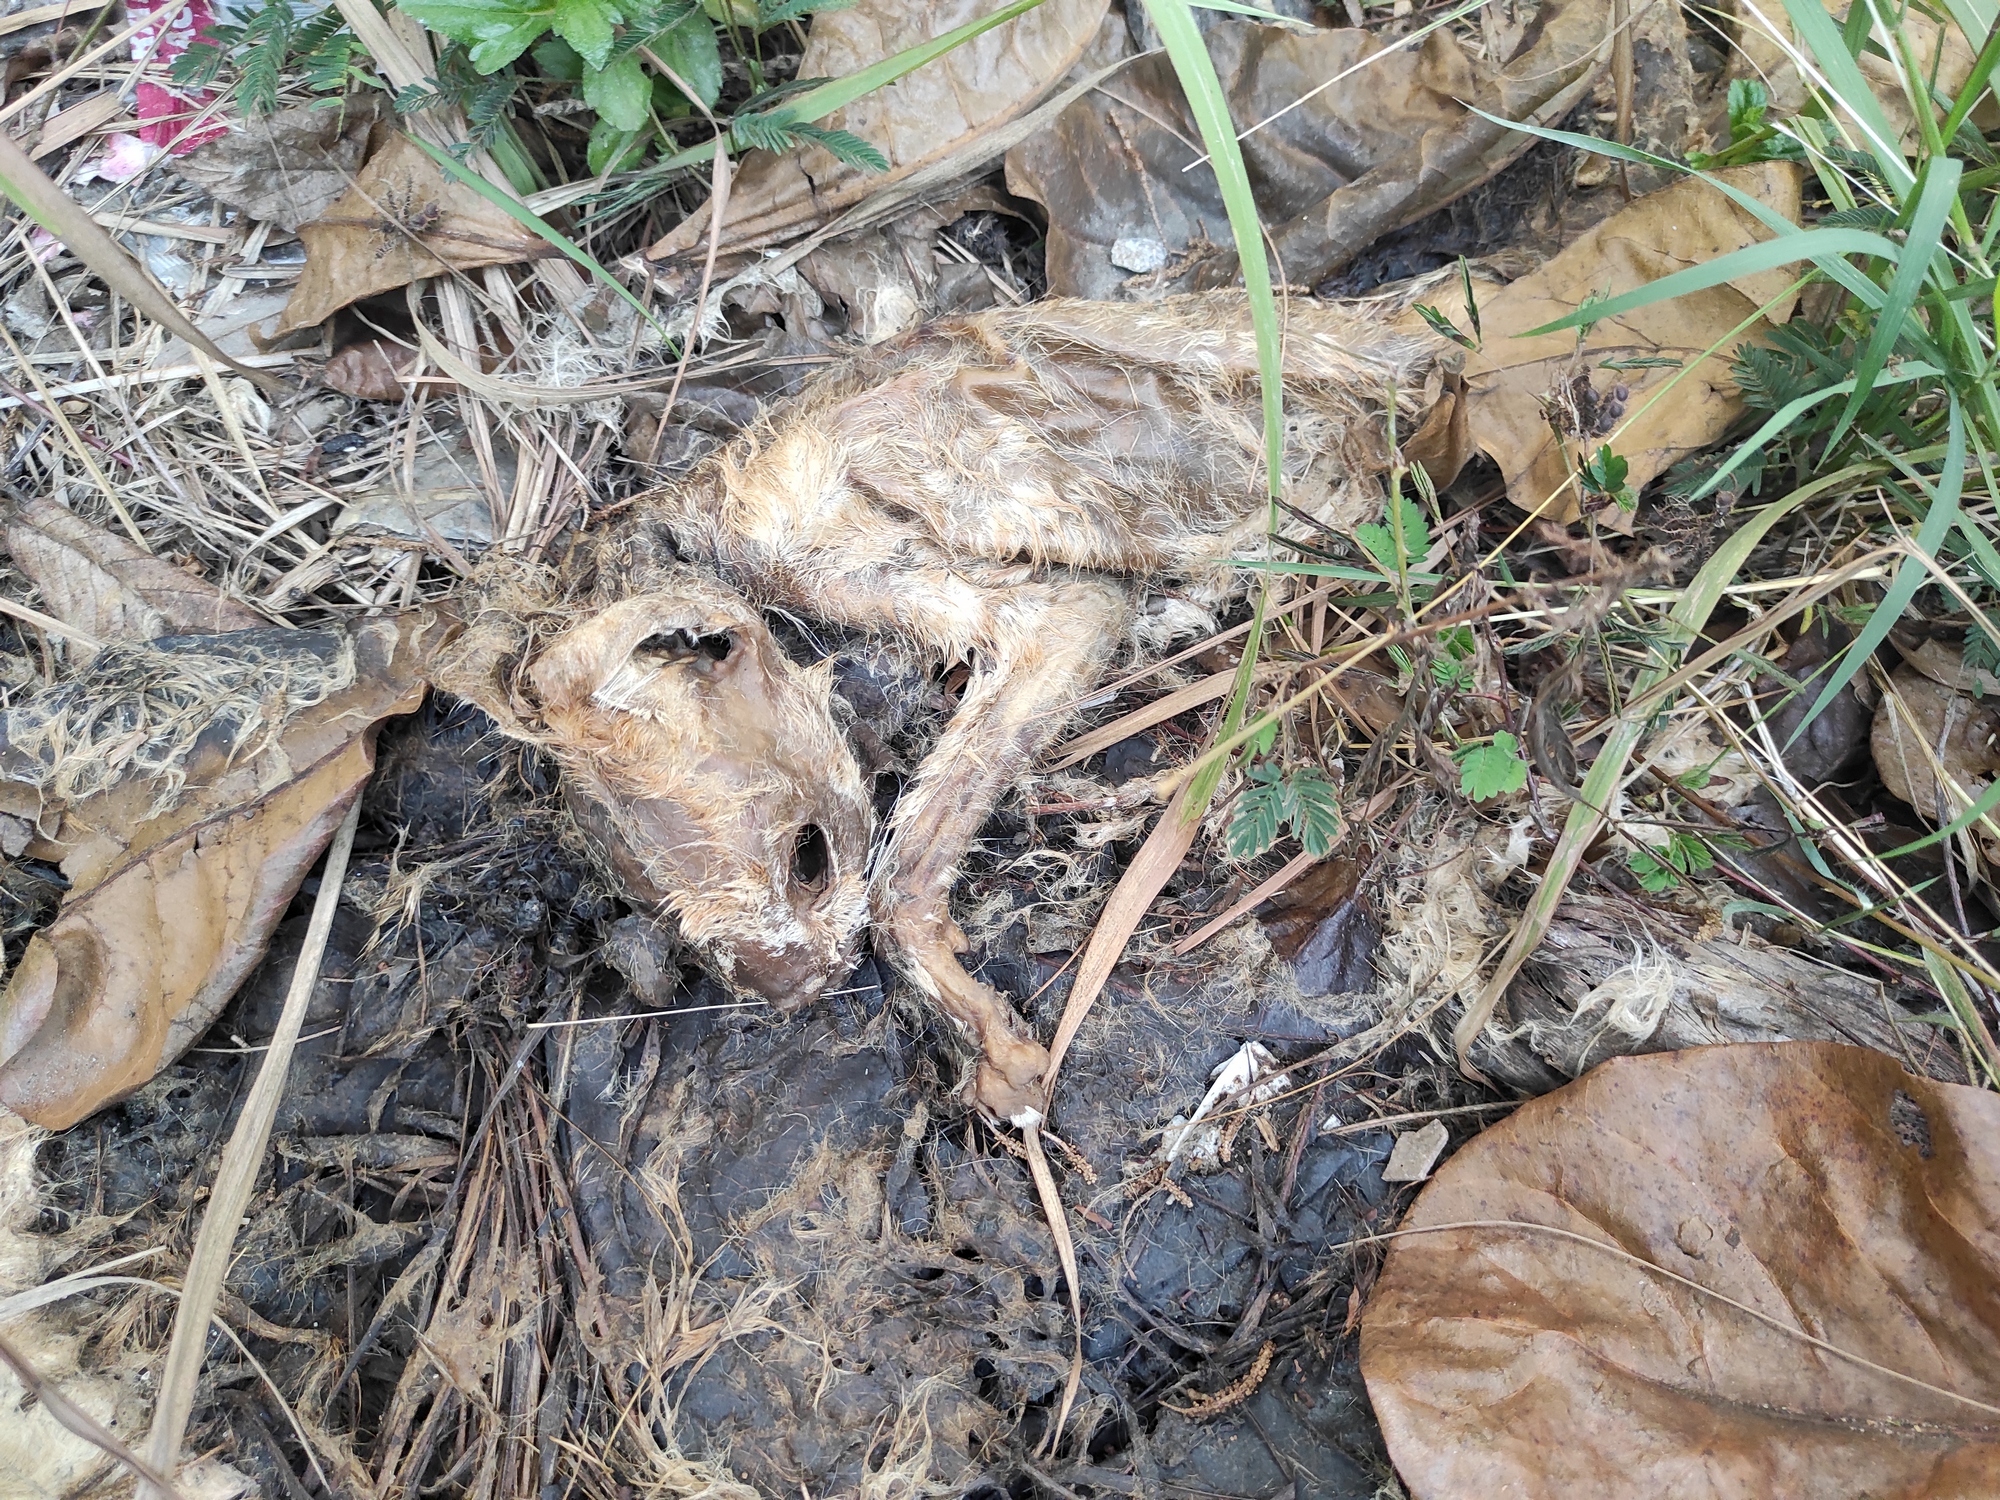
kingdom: Animalia
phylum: Chordata
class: Mammalia
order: Carnivora
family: Felidae
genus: Felis
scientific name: Felis catus
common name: Domestic cat
